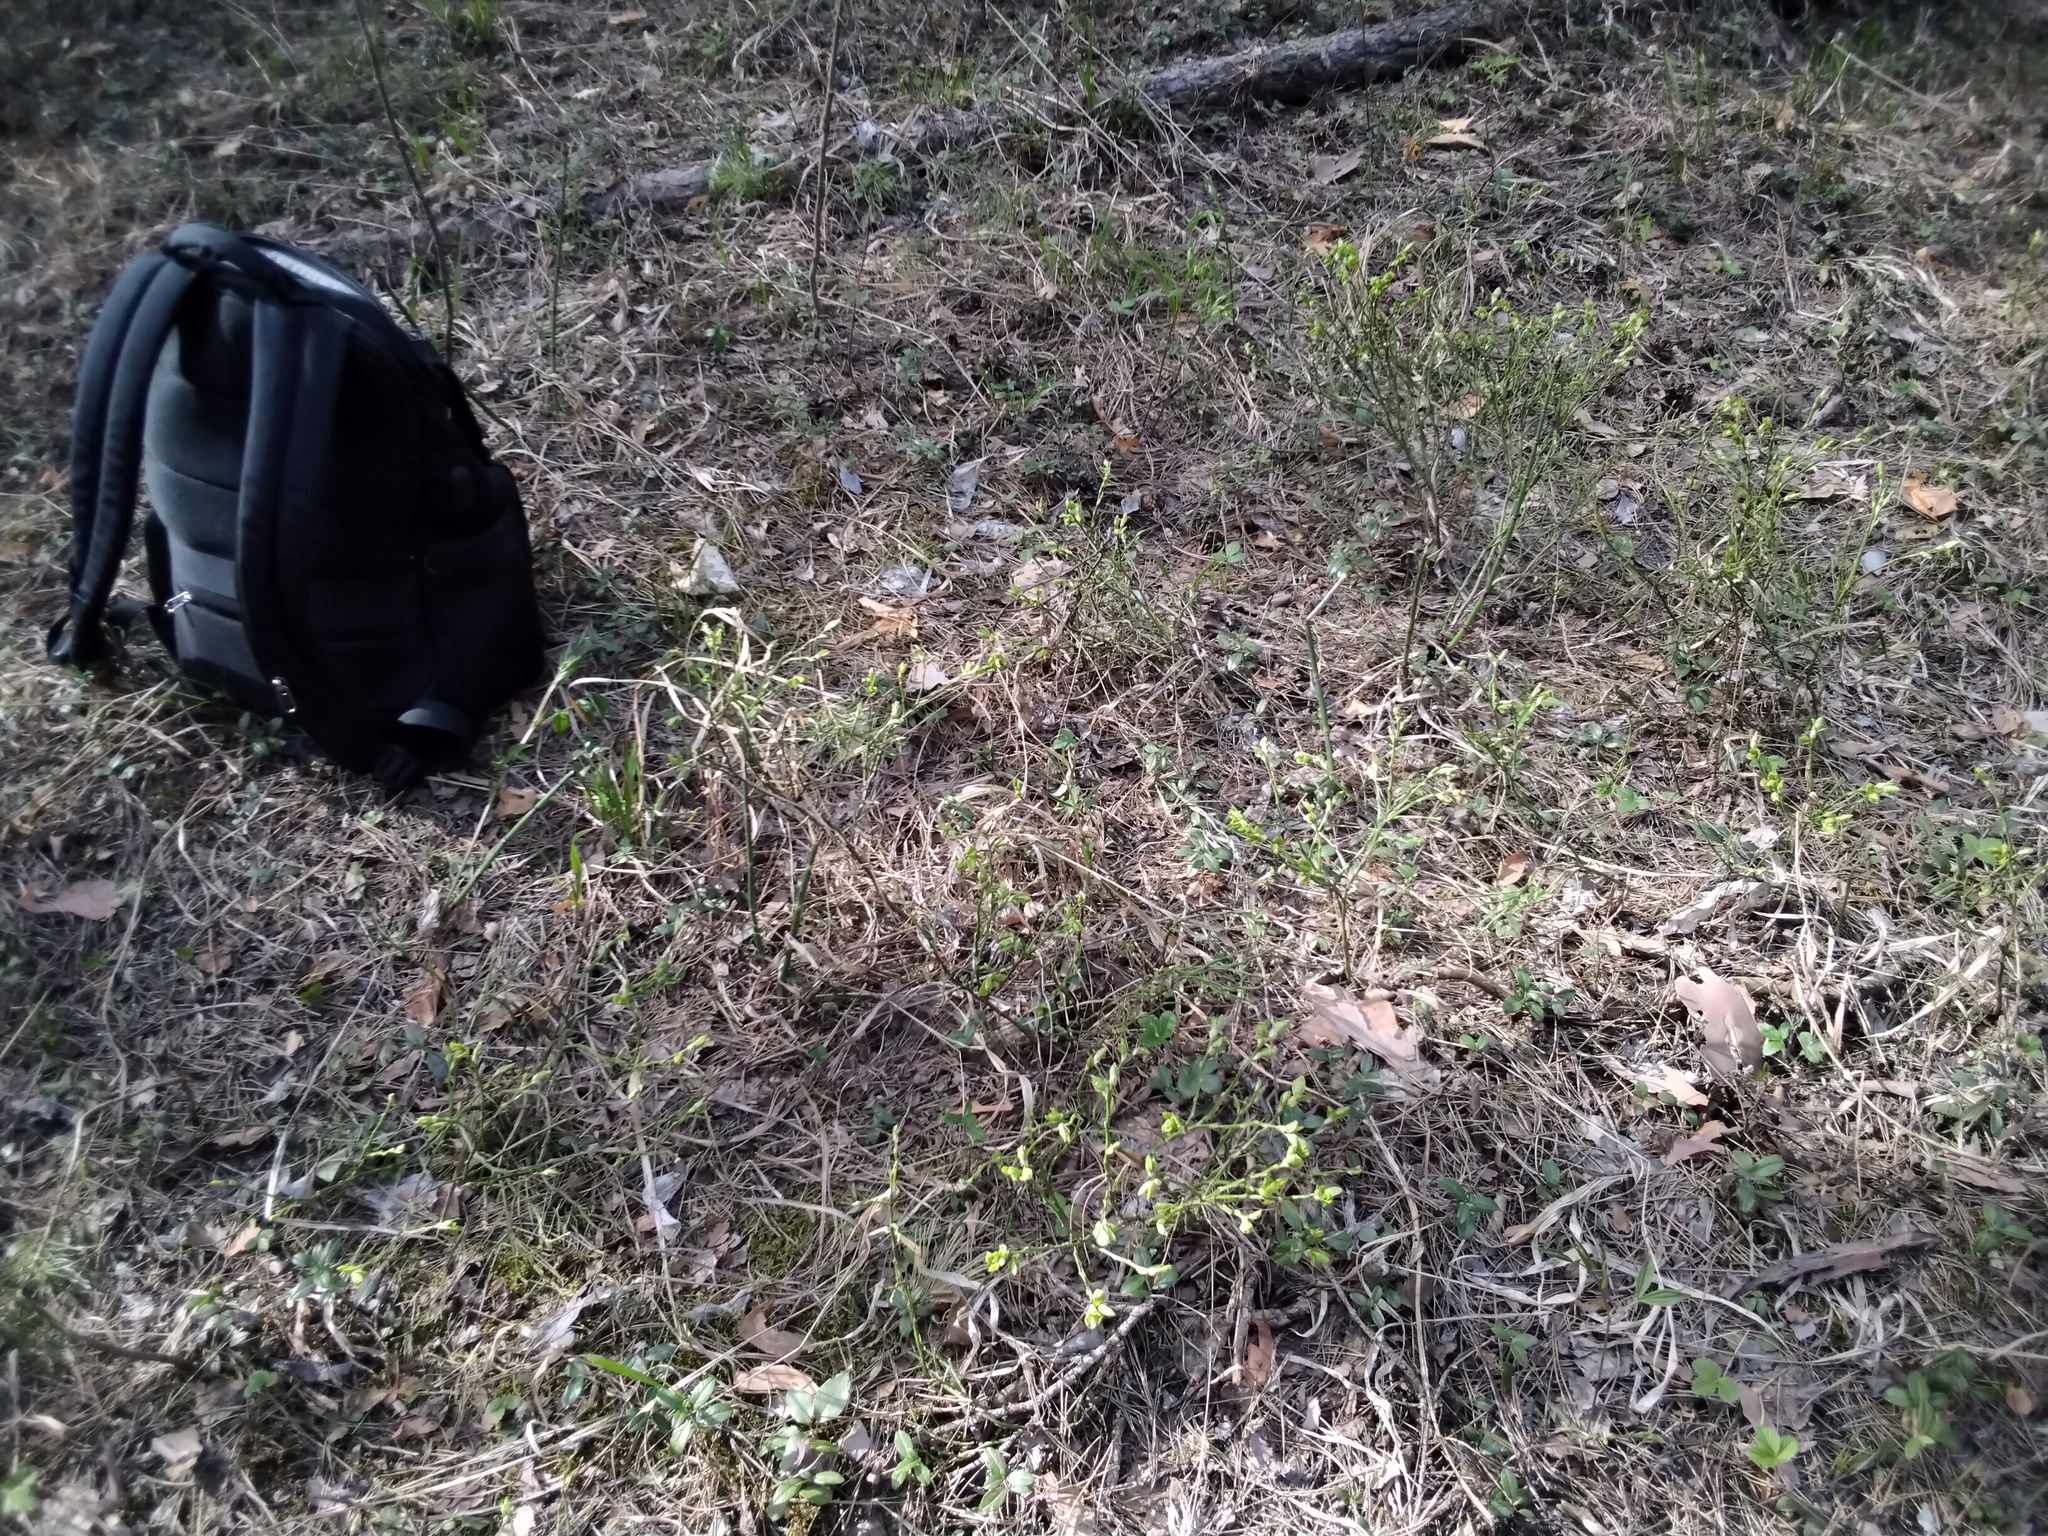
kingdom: Plantae
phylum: Tracheophyta
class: Magnoliopsida
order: Ericales
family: Ericaceae
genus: Vaccinium
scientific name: Vaccinium myrtillus
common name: Bilberry
